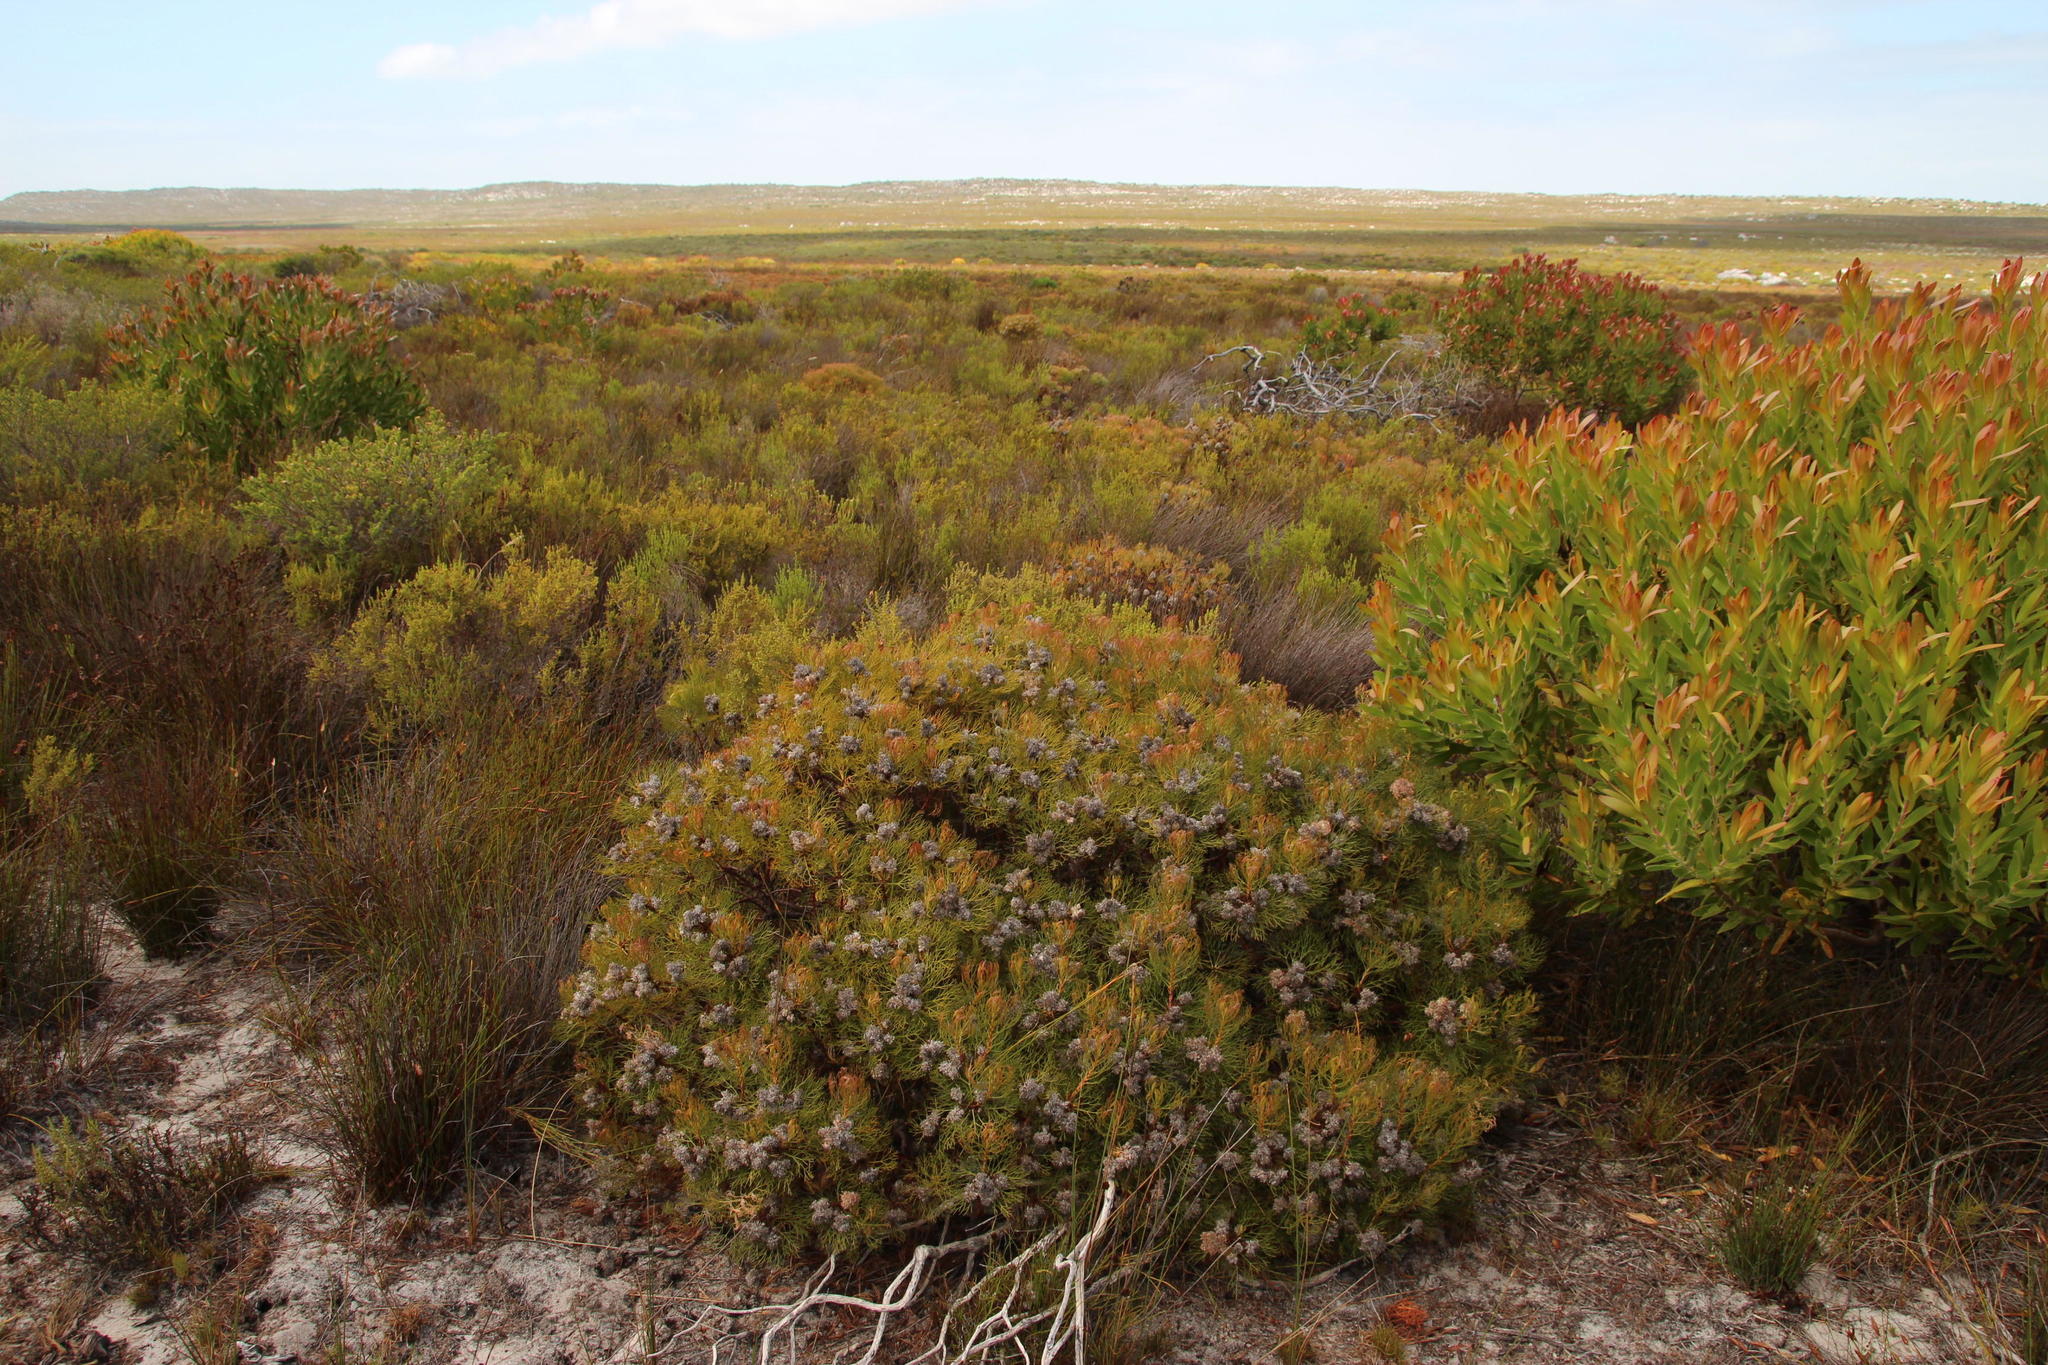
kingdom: Plantae
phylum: Tracheophyta
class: Magnoliopsida
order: Proteales
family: Proteaceae
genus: Serruria
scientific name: Serruria glomerata
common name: Cluster spiderhead
